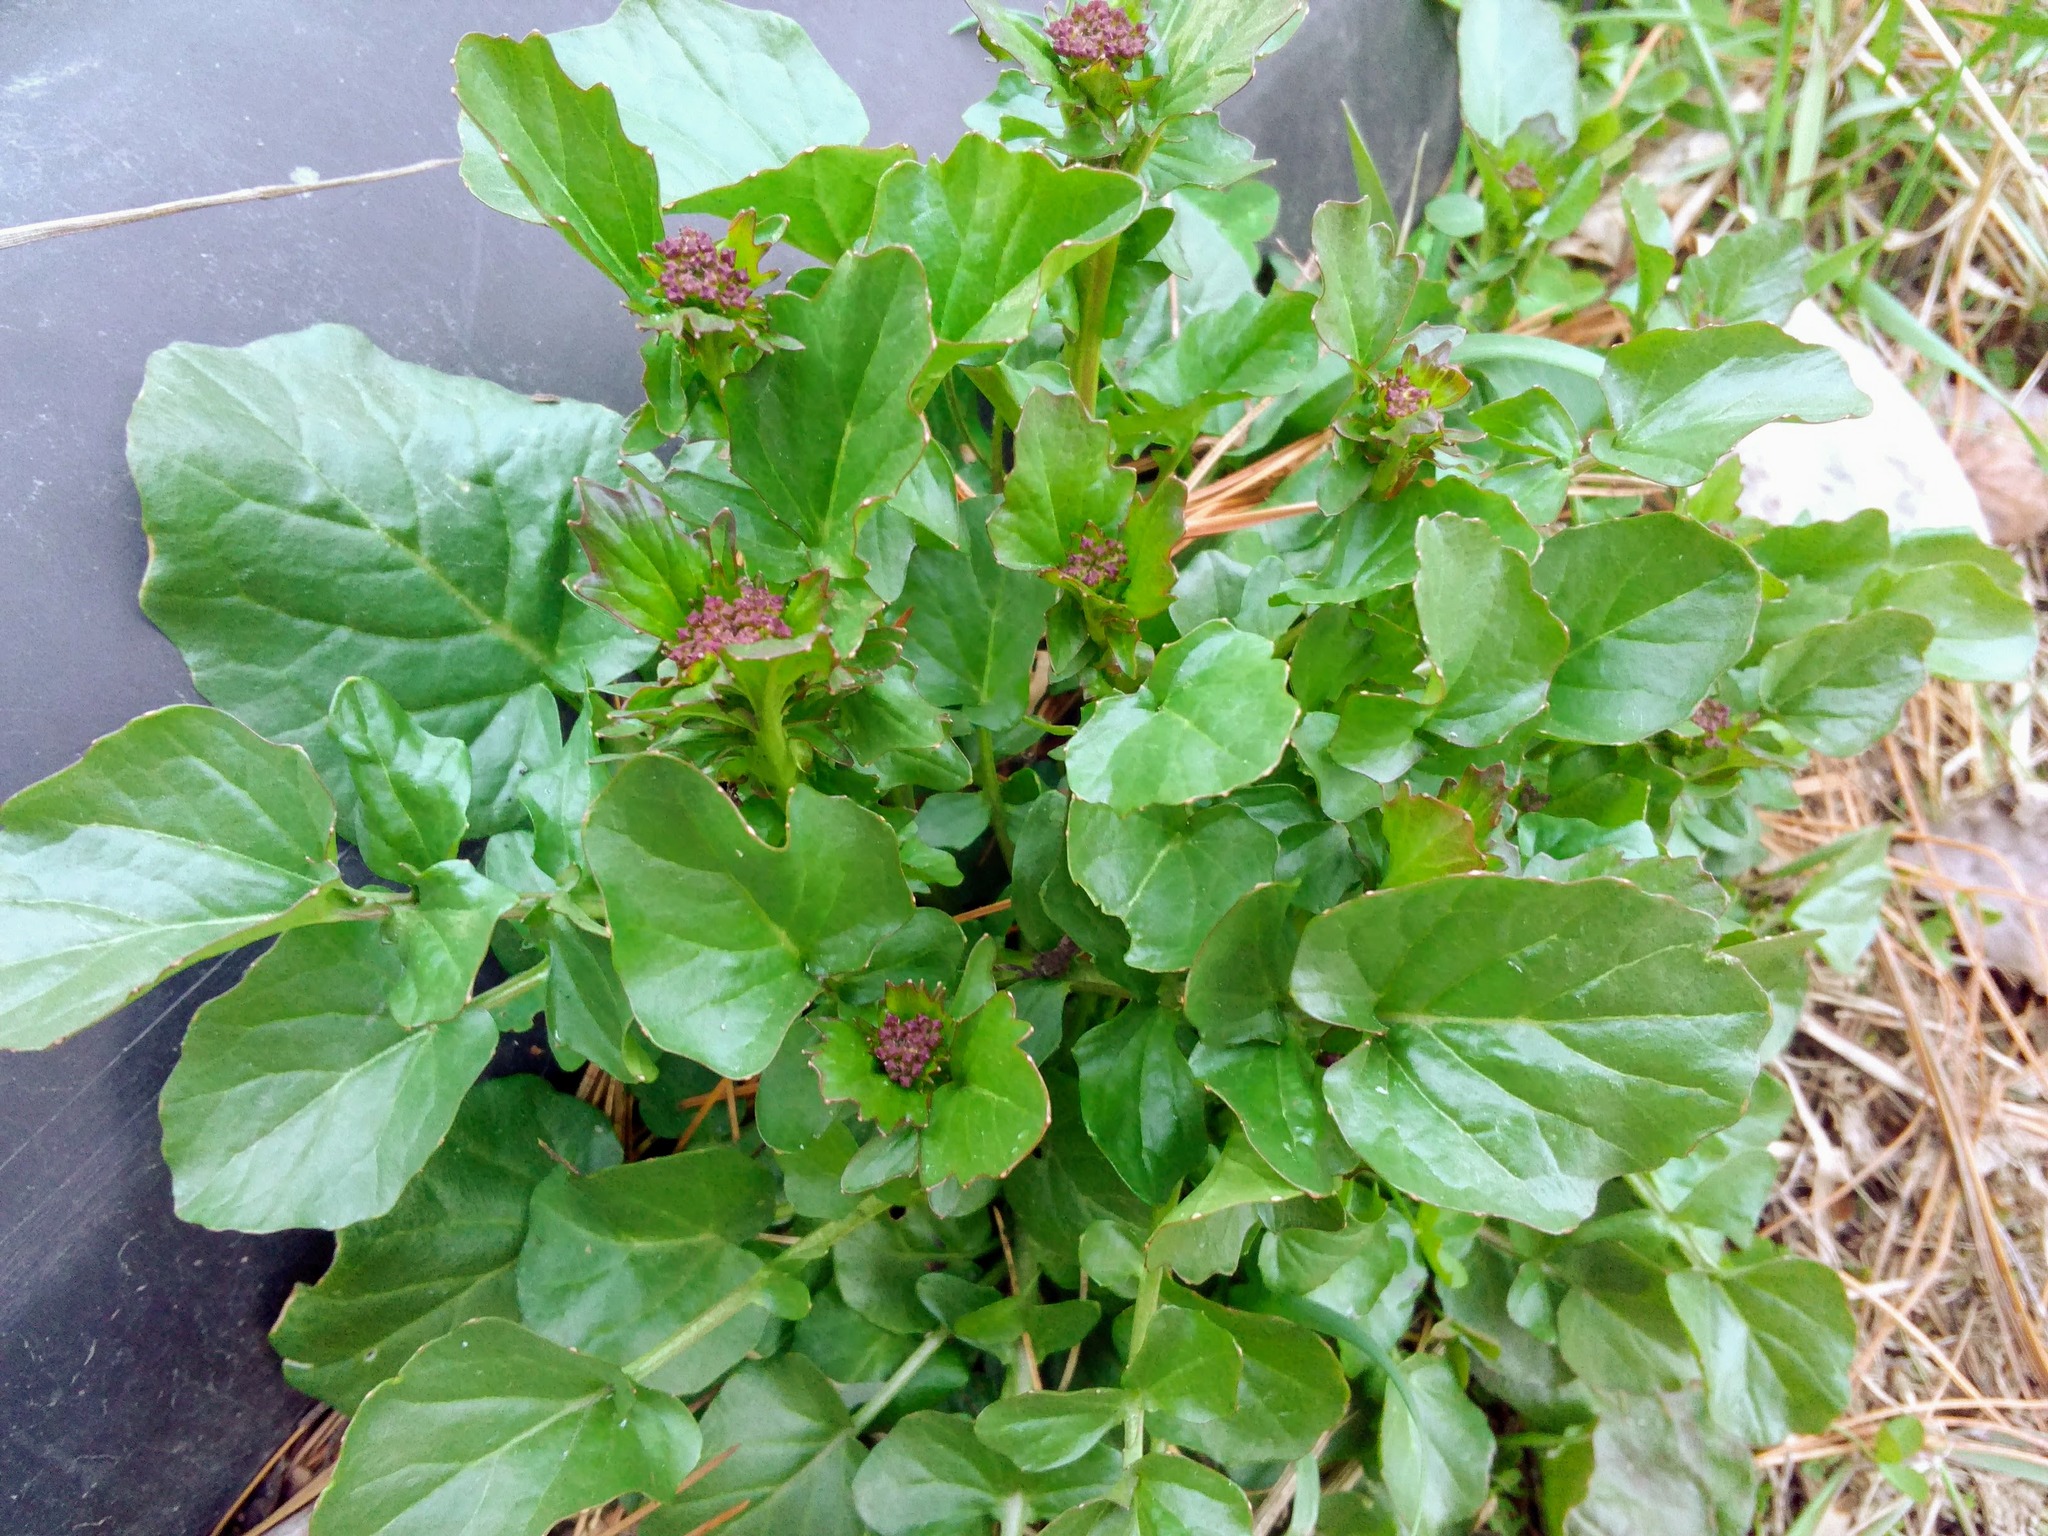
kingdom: Plantae
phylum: Tracheophyta
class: Magnoliopsida
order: Brassicales
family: Brassicaceae
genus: Barbarea
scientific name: Barbarea vulgaris
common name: Cressy-greens
